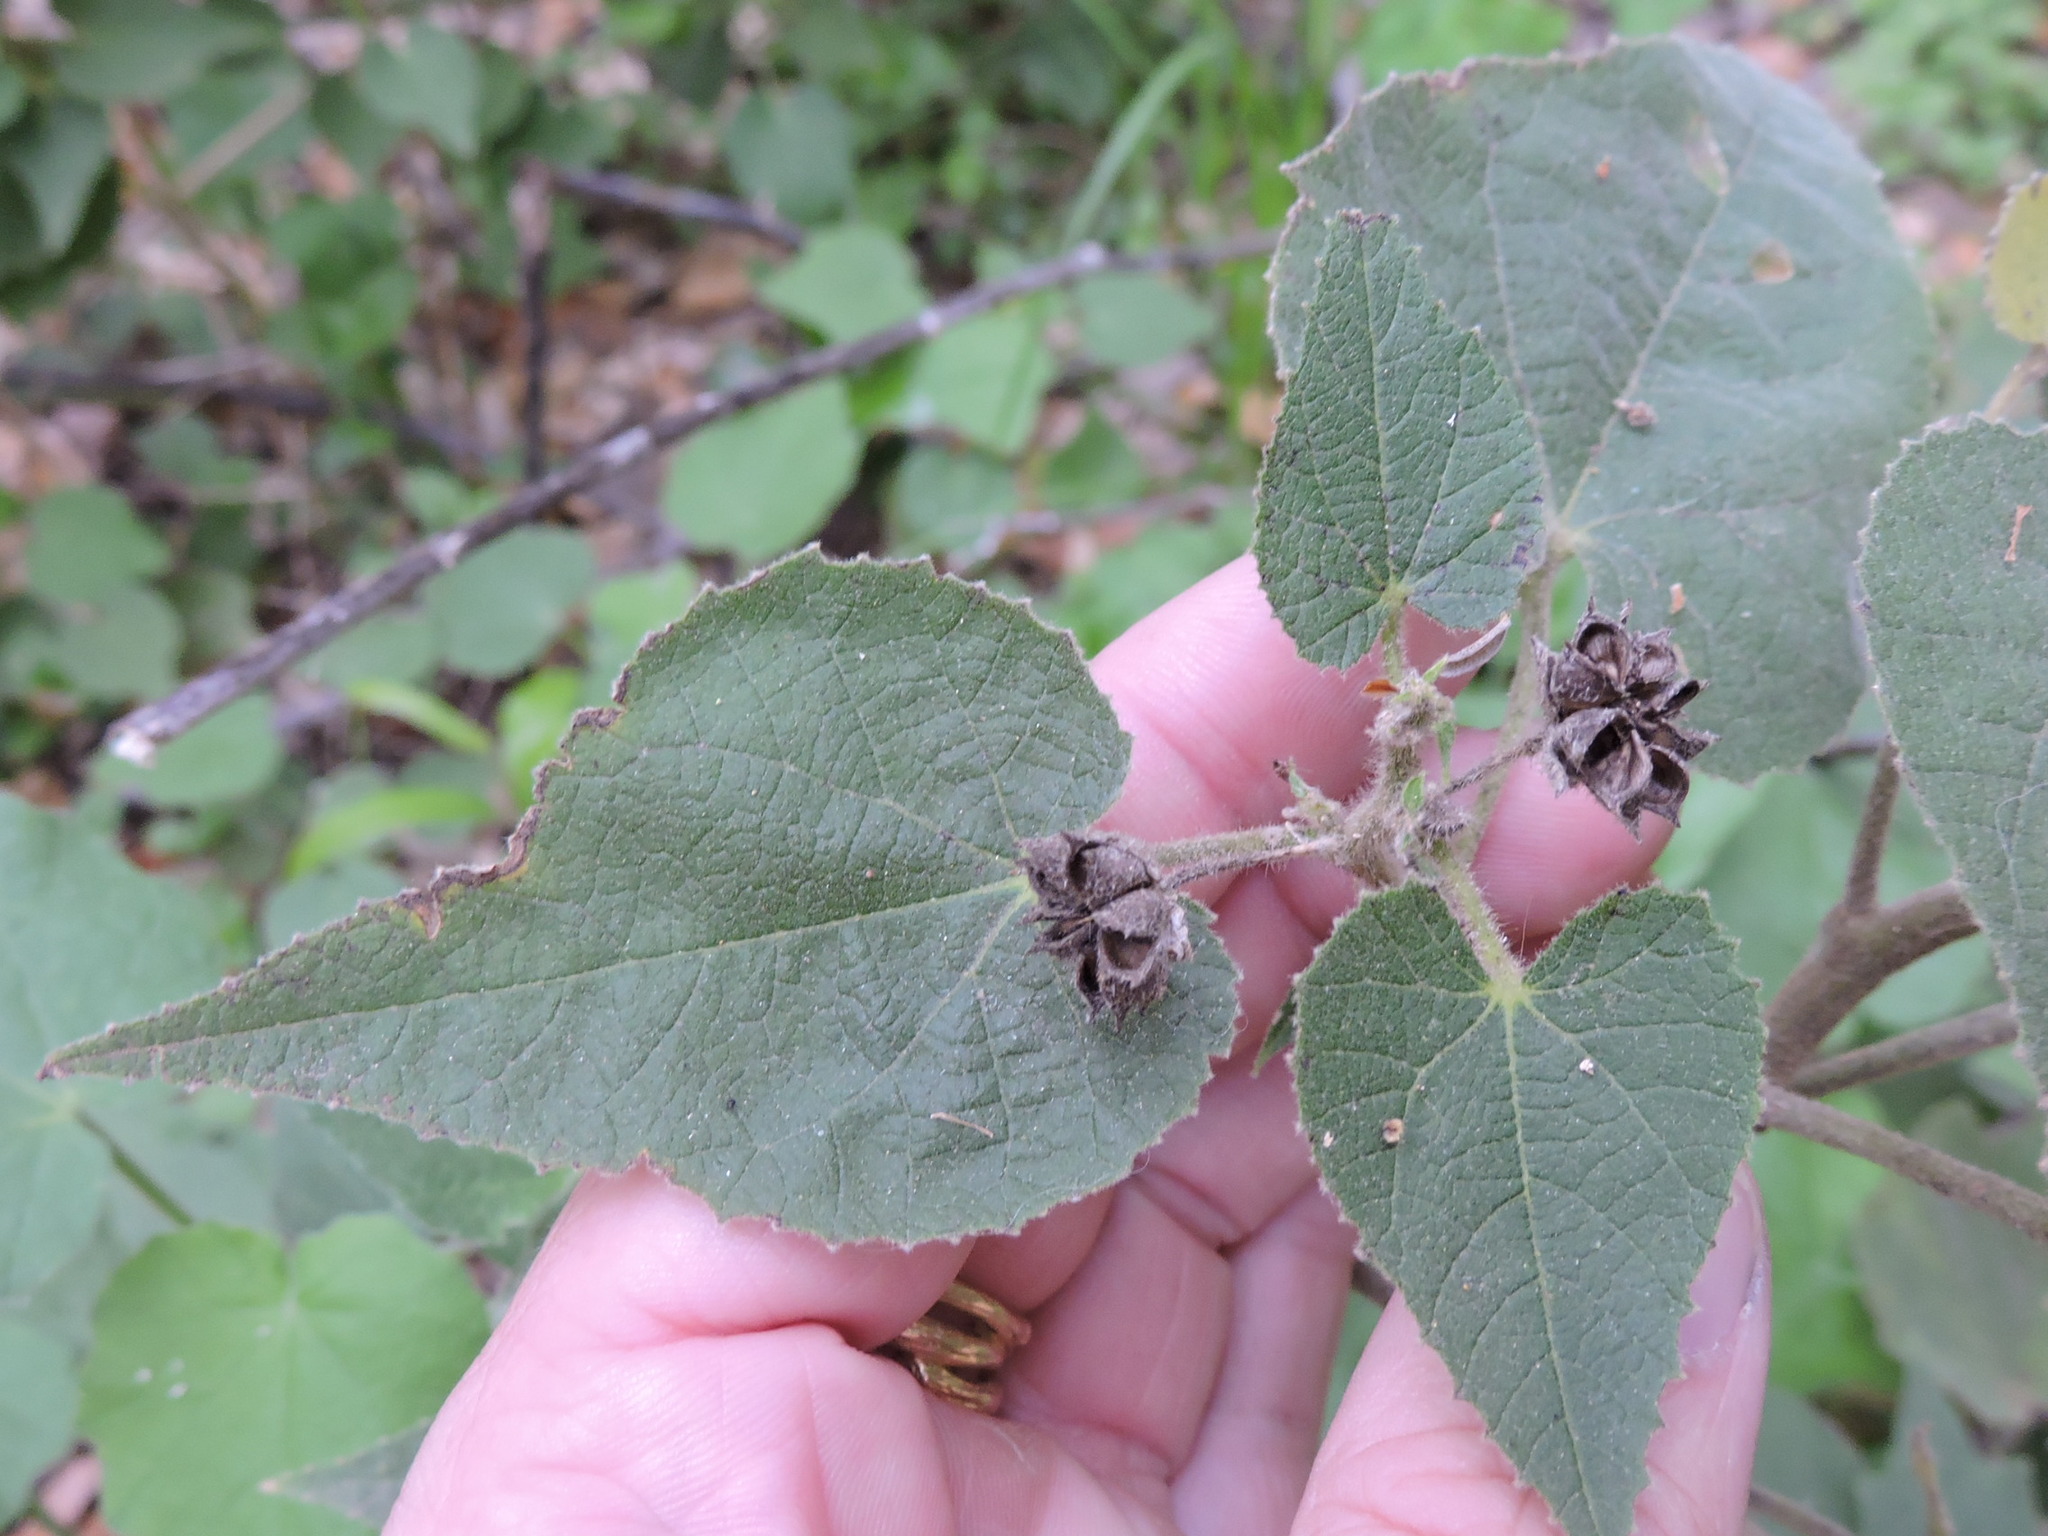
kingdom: Plantae
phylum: Tracheophyta
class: Magnoliopsida
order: Malvales
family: Malvaceae
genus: Allowissadula
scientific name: Allowissadula holosericea
